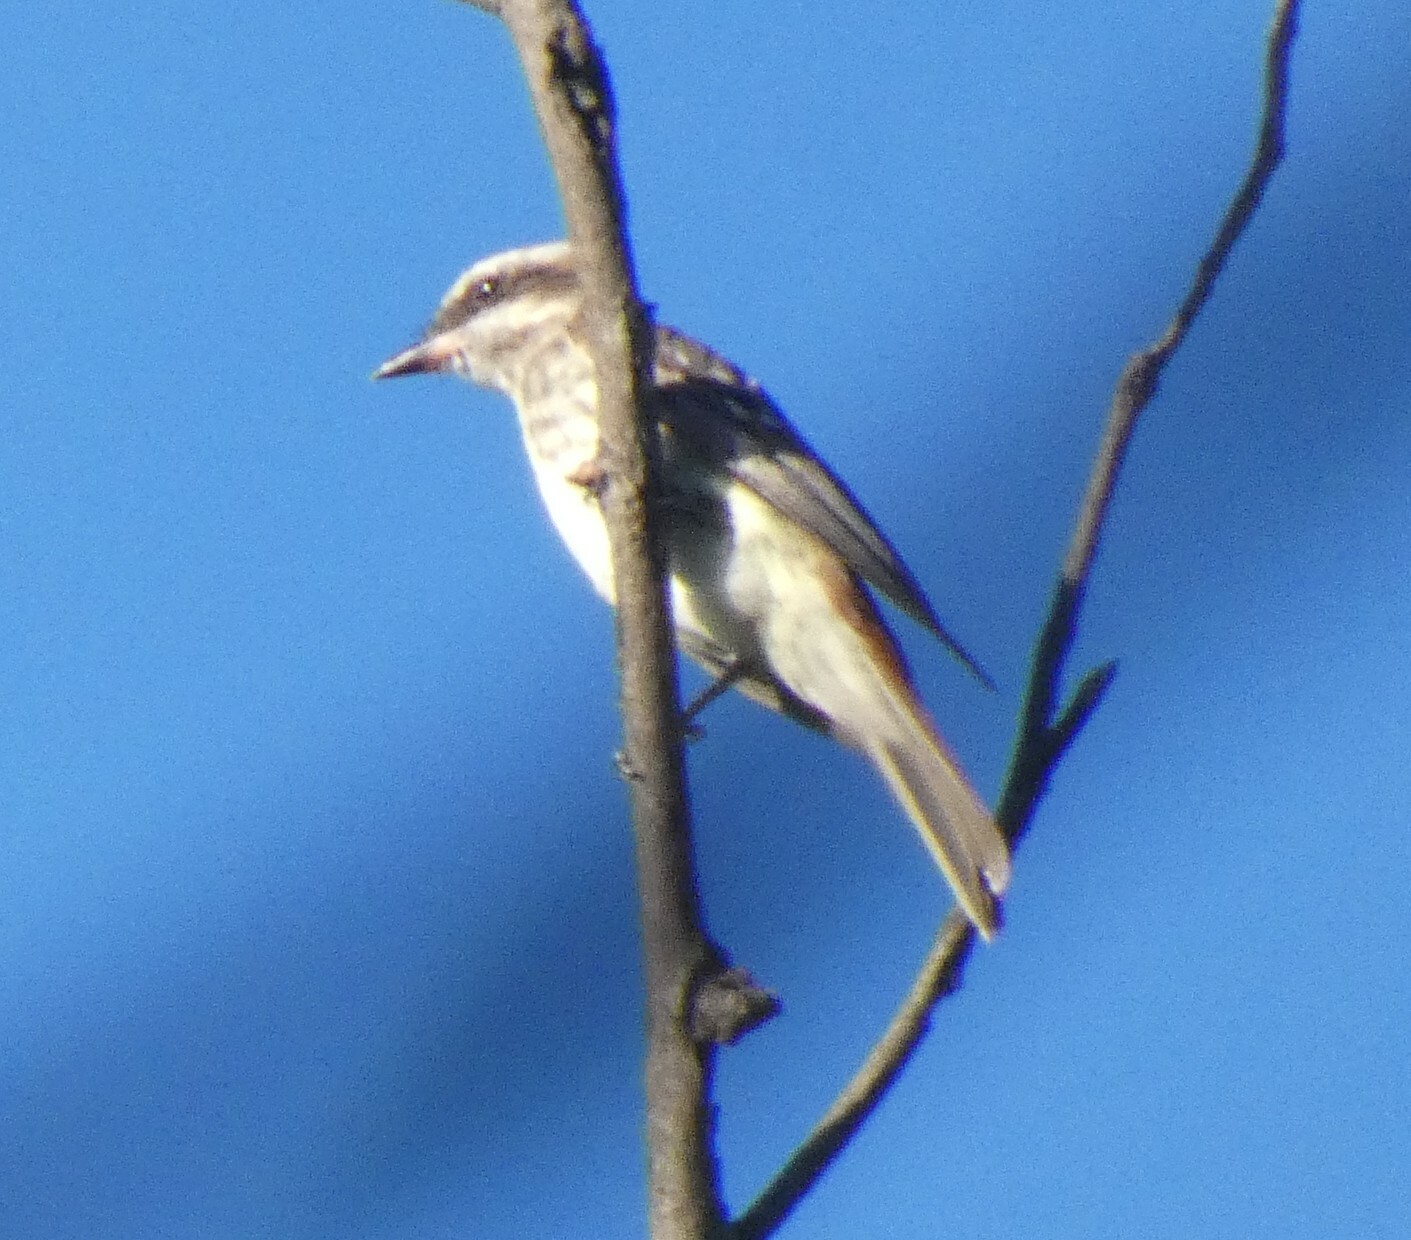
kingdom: Animalia
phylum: Chordata
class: Aves
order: Passeriformes
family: Tyrannidae
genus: Empidonomus
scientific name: Empidonomus varius
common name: Variegated flycatcher
